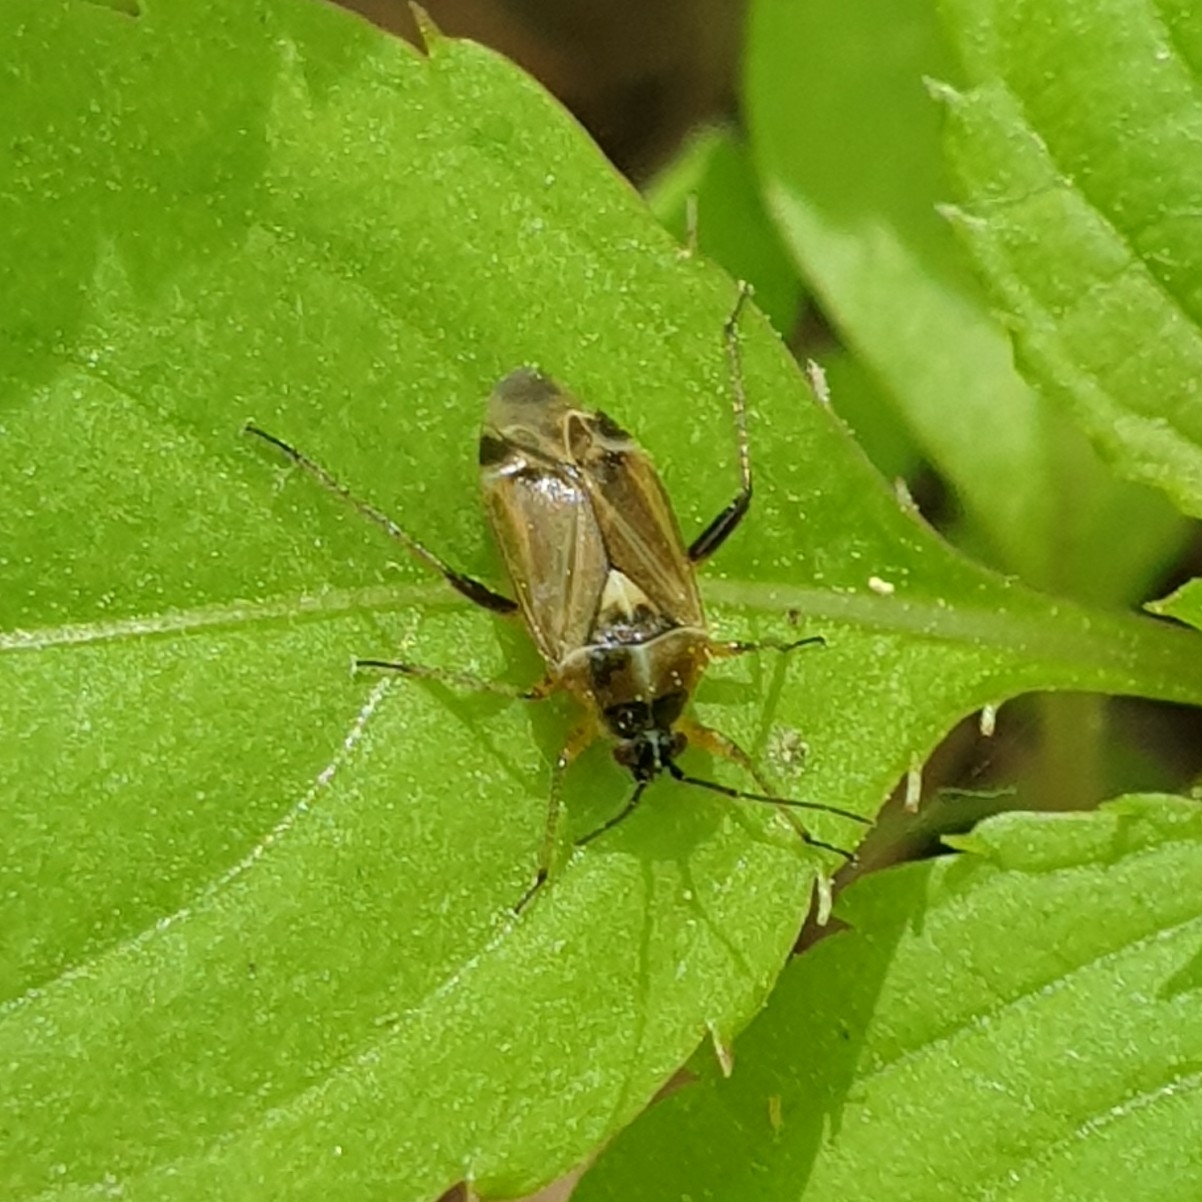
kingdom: Animalia
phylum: Arthropoda
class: Insecta
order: Hemiptera
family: Miridae
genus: Harpocera
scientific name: Harpocera thoracica
